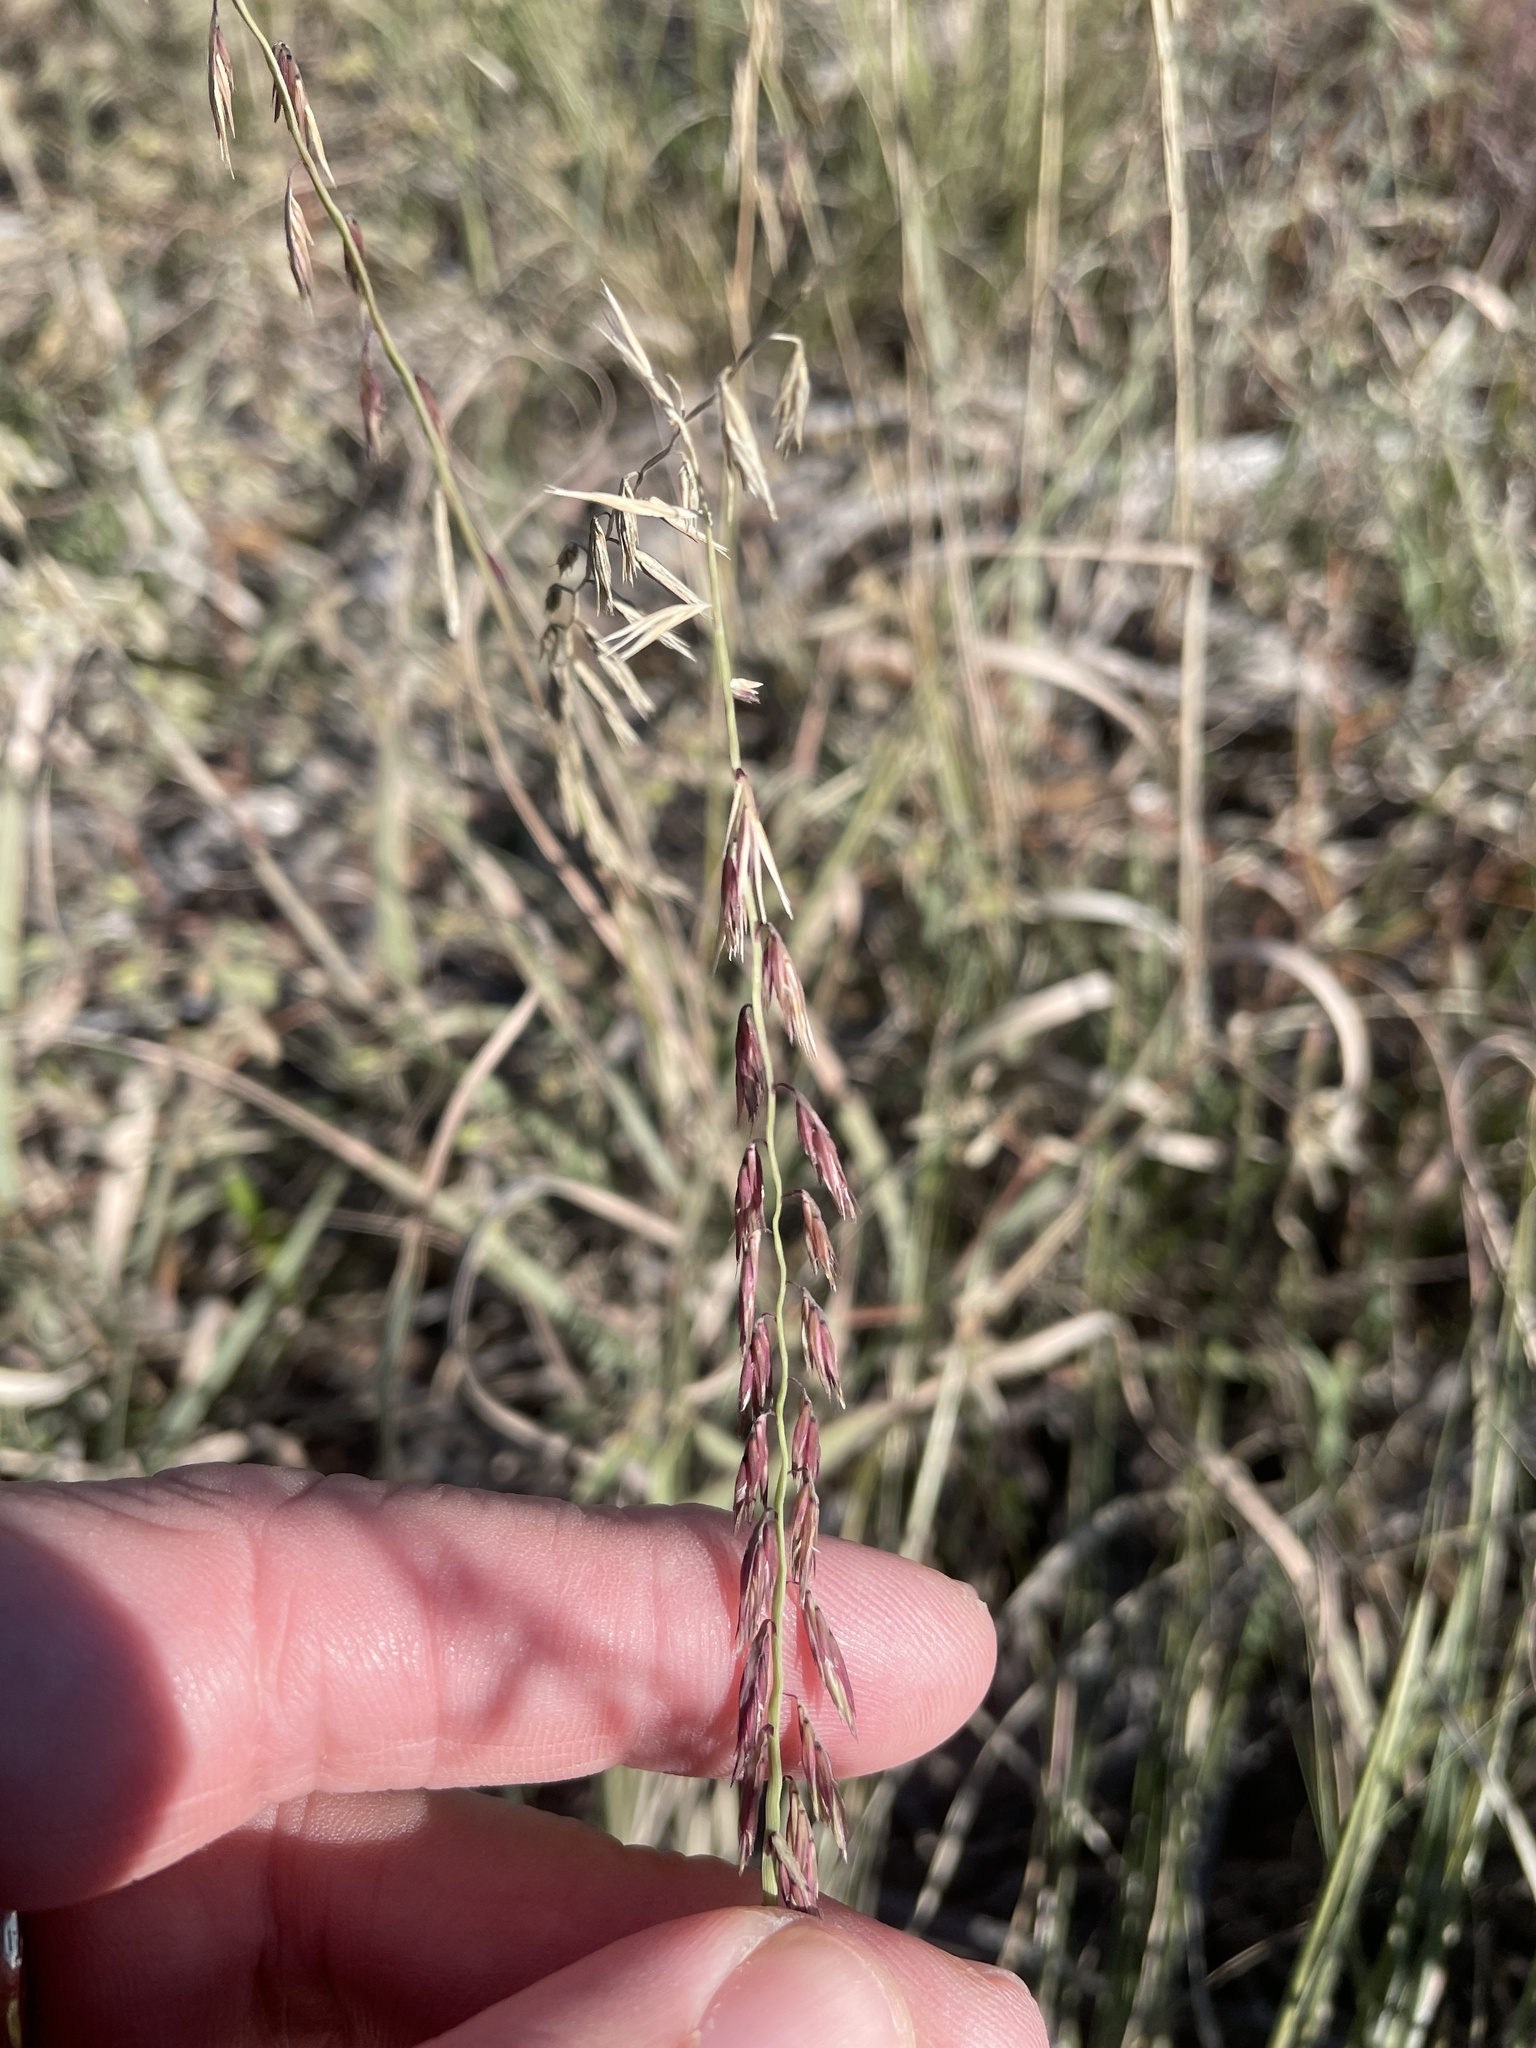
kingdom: Plantae
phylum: Tracheophyta
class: Liliopsida
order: Poales
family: Poaceae
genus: Bouteloua
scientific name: Bouteloua curtipendula
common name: Side-oats grama
